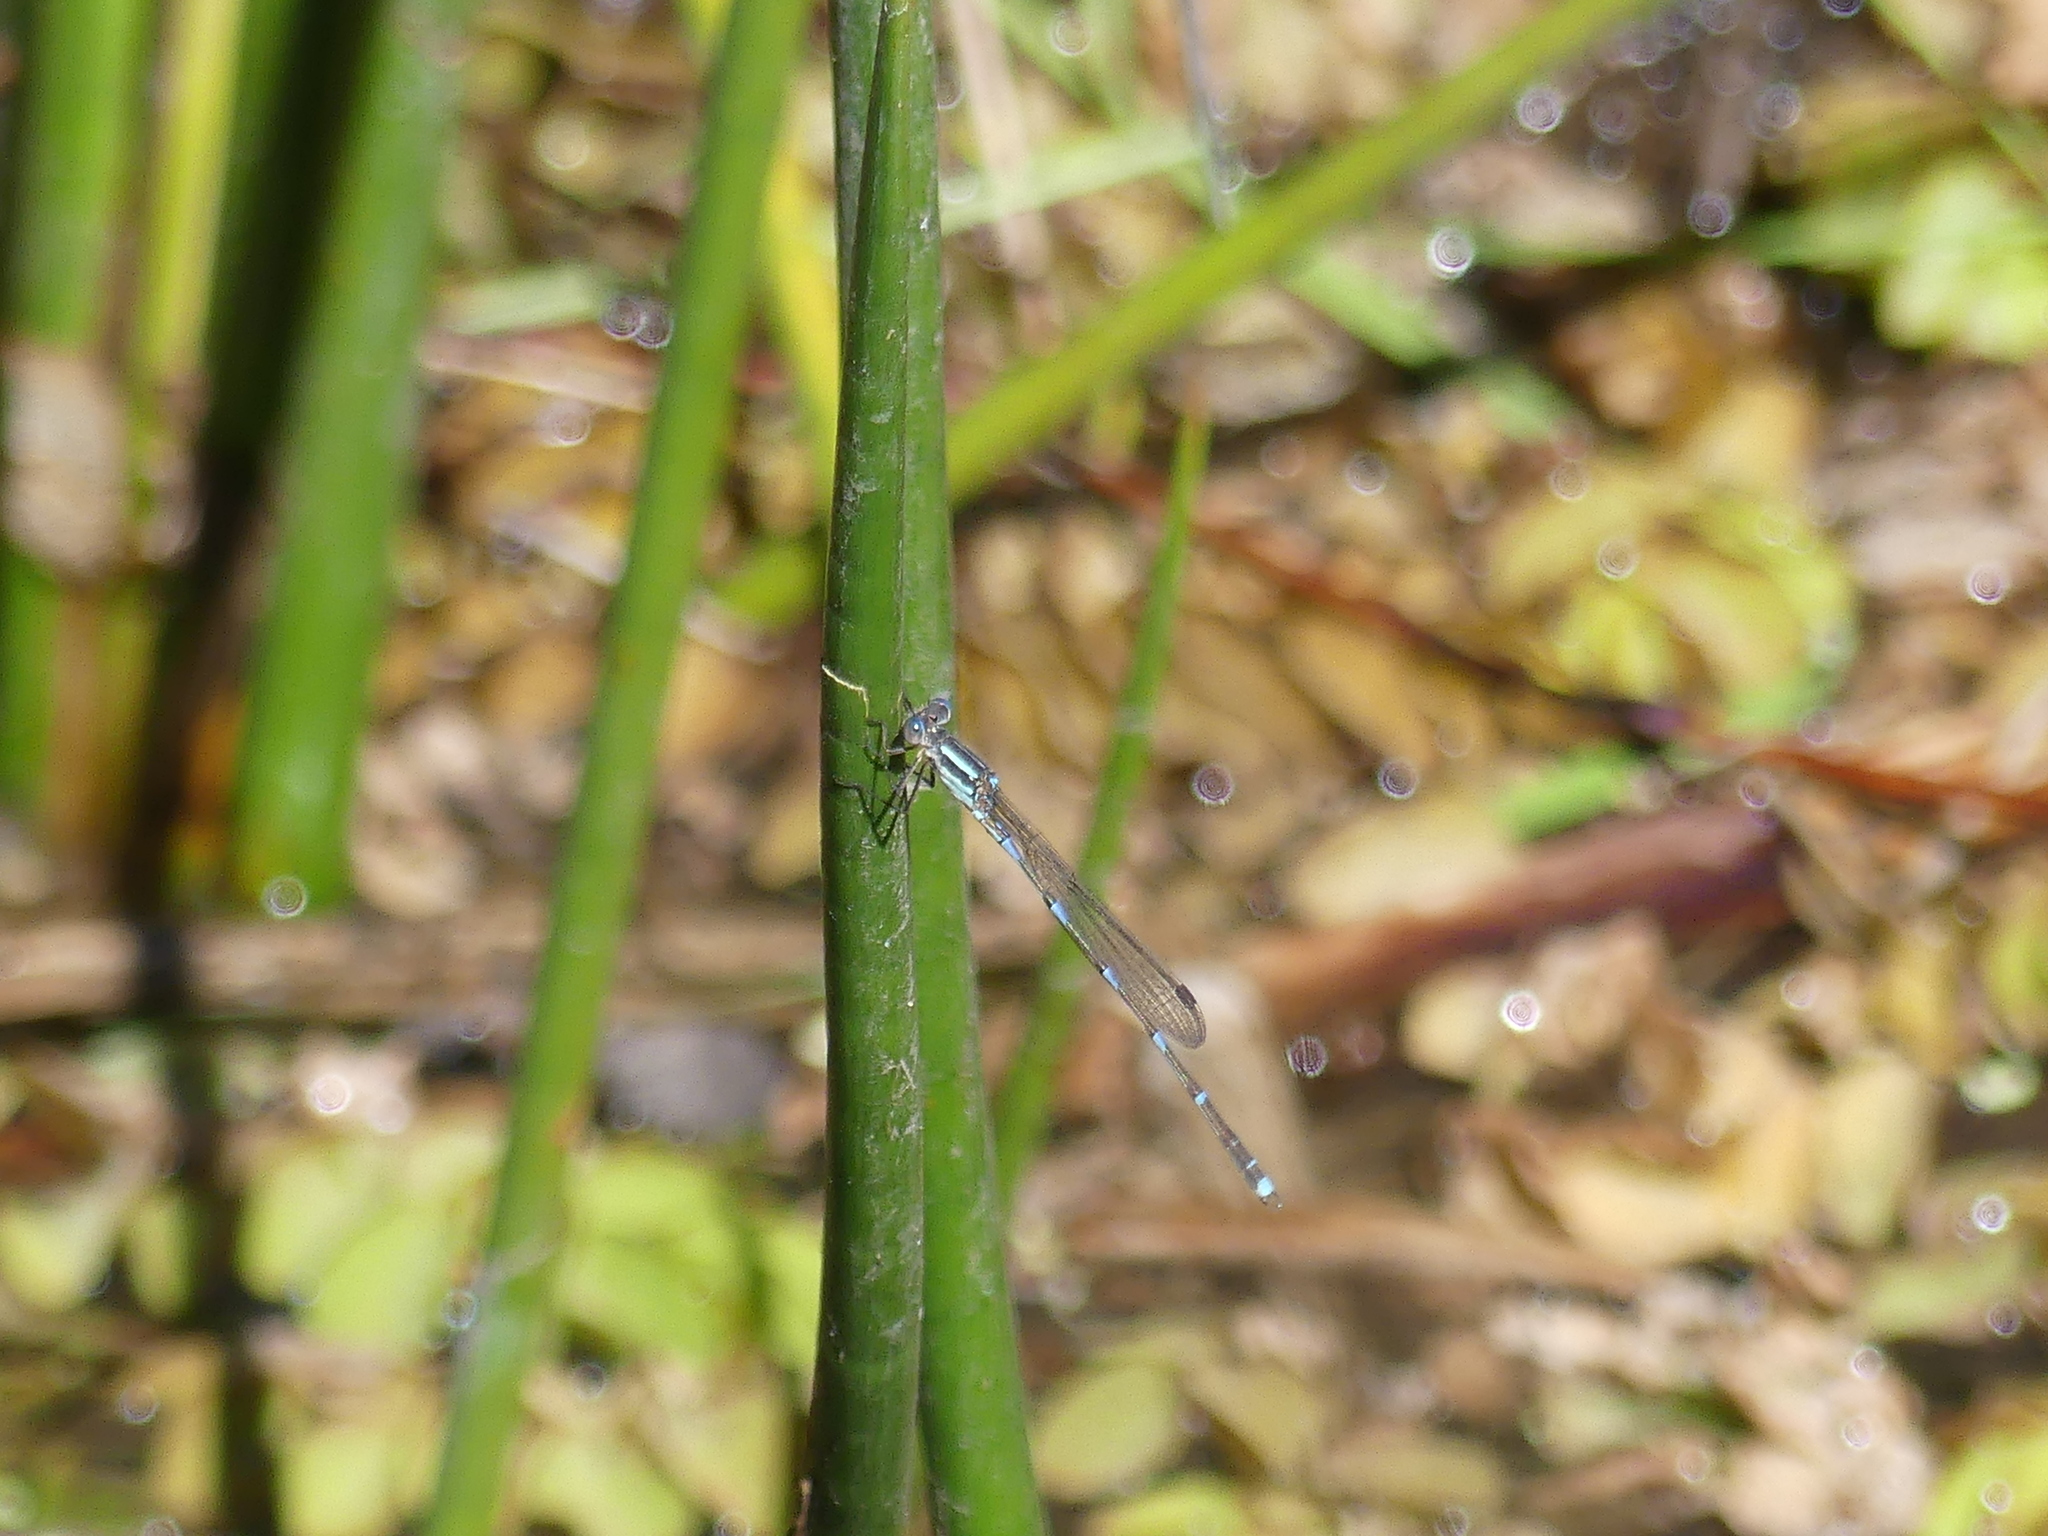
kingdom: Animalia
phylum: Arthropoda
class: Insecta
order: Odonata
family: Lestidae
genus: Austrolestes
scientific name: Austrolestes leda
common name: Wandering ringtail
